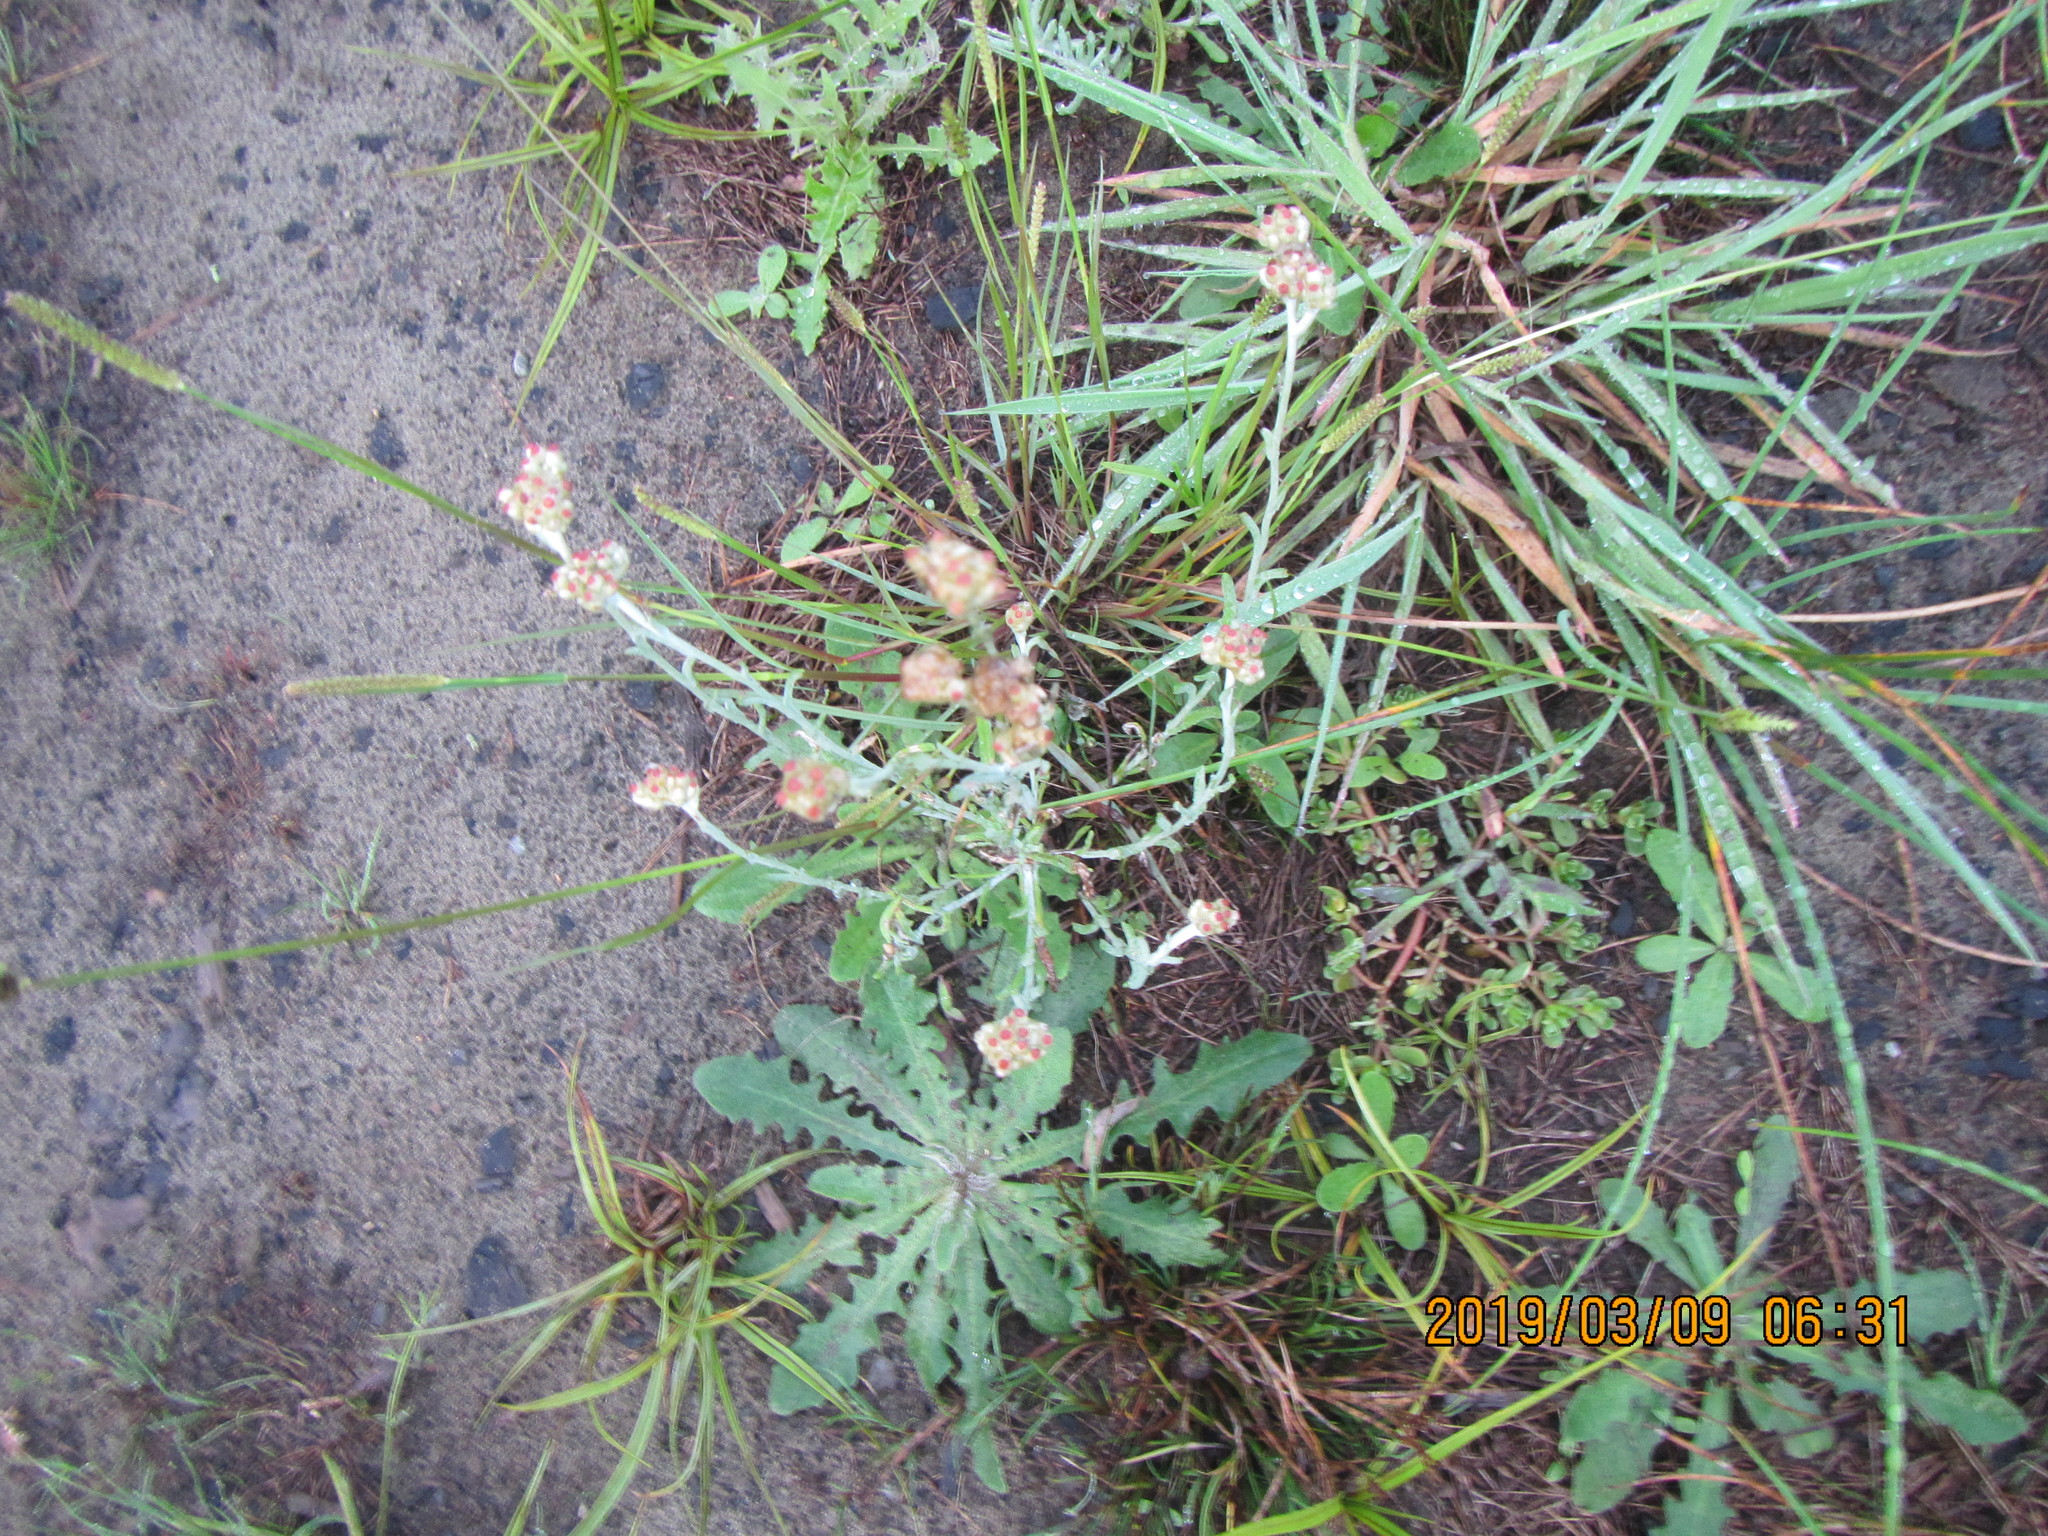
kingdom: Plantae
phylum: Tracheophyta
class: Magnoliopsida
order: Asterales
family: Asteraceae
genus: Helichrysum
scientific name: Helichrysum luteoalbum
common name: Daisy
